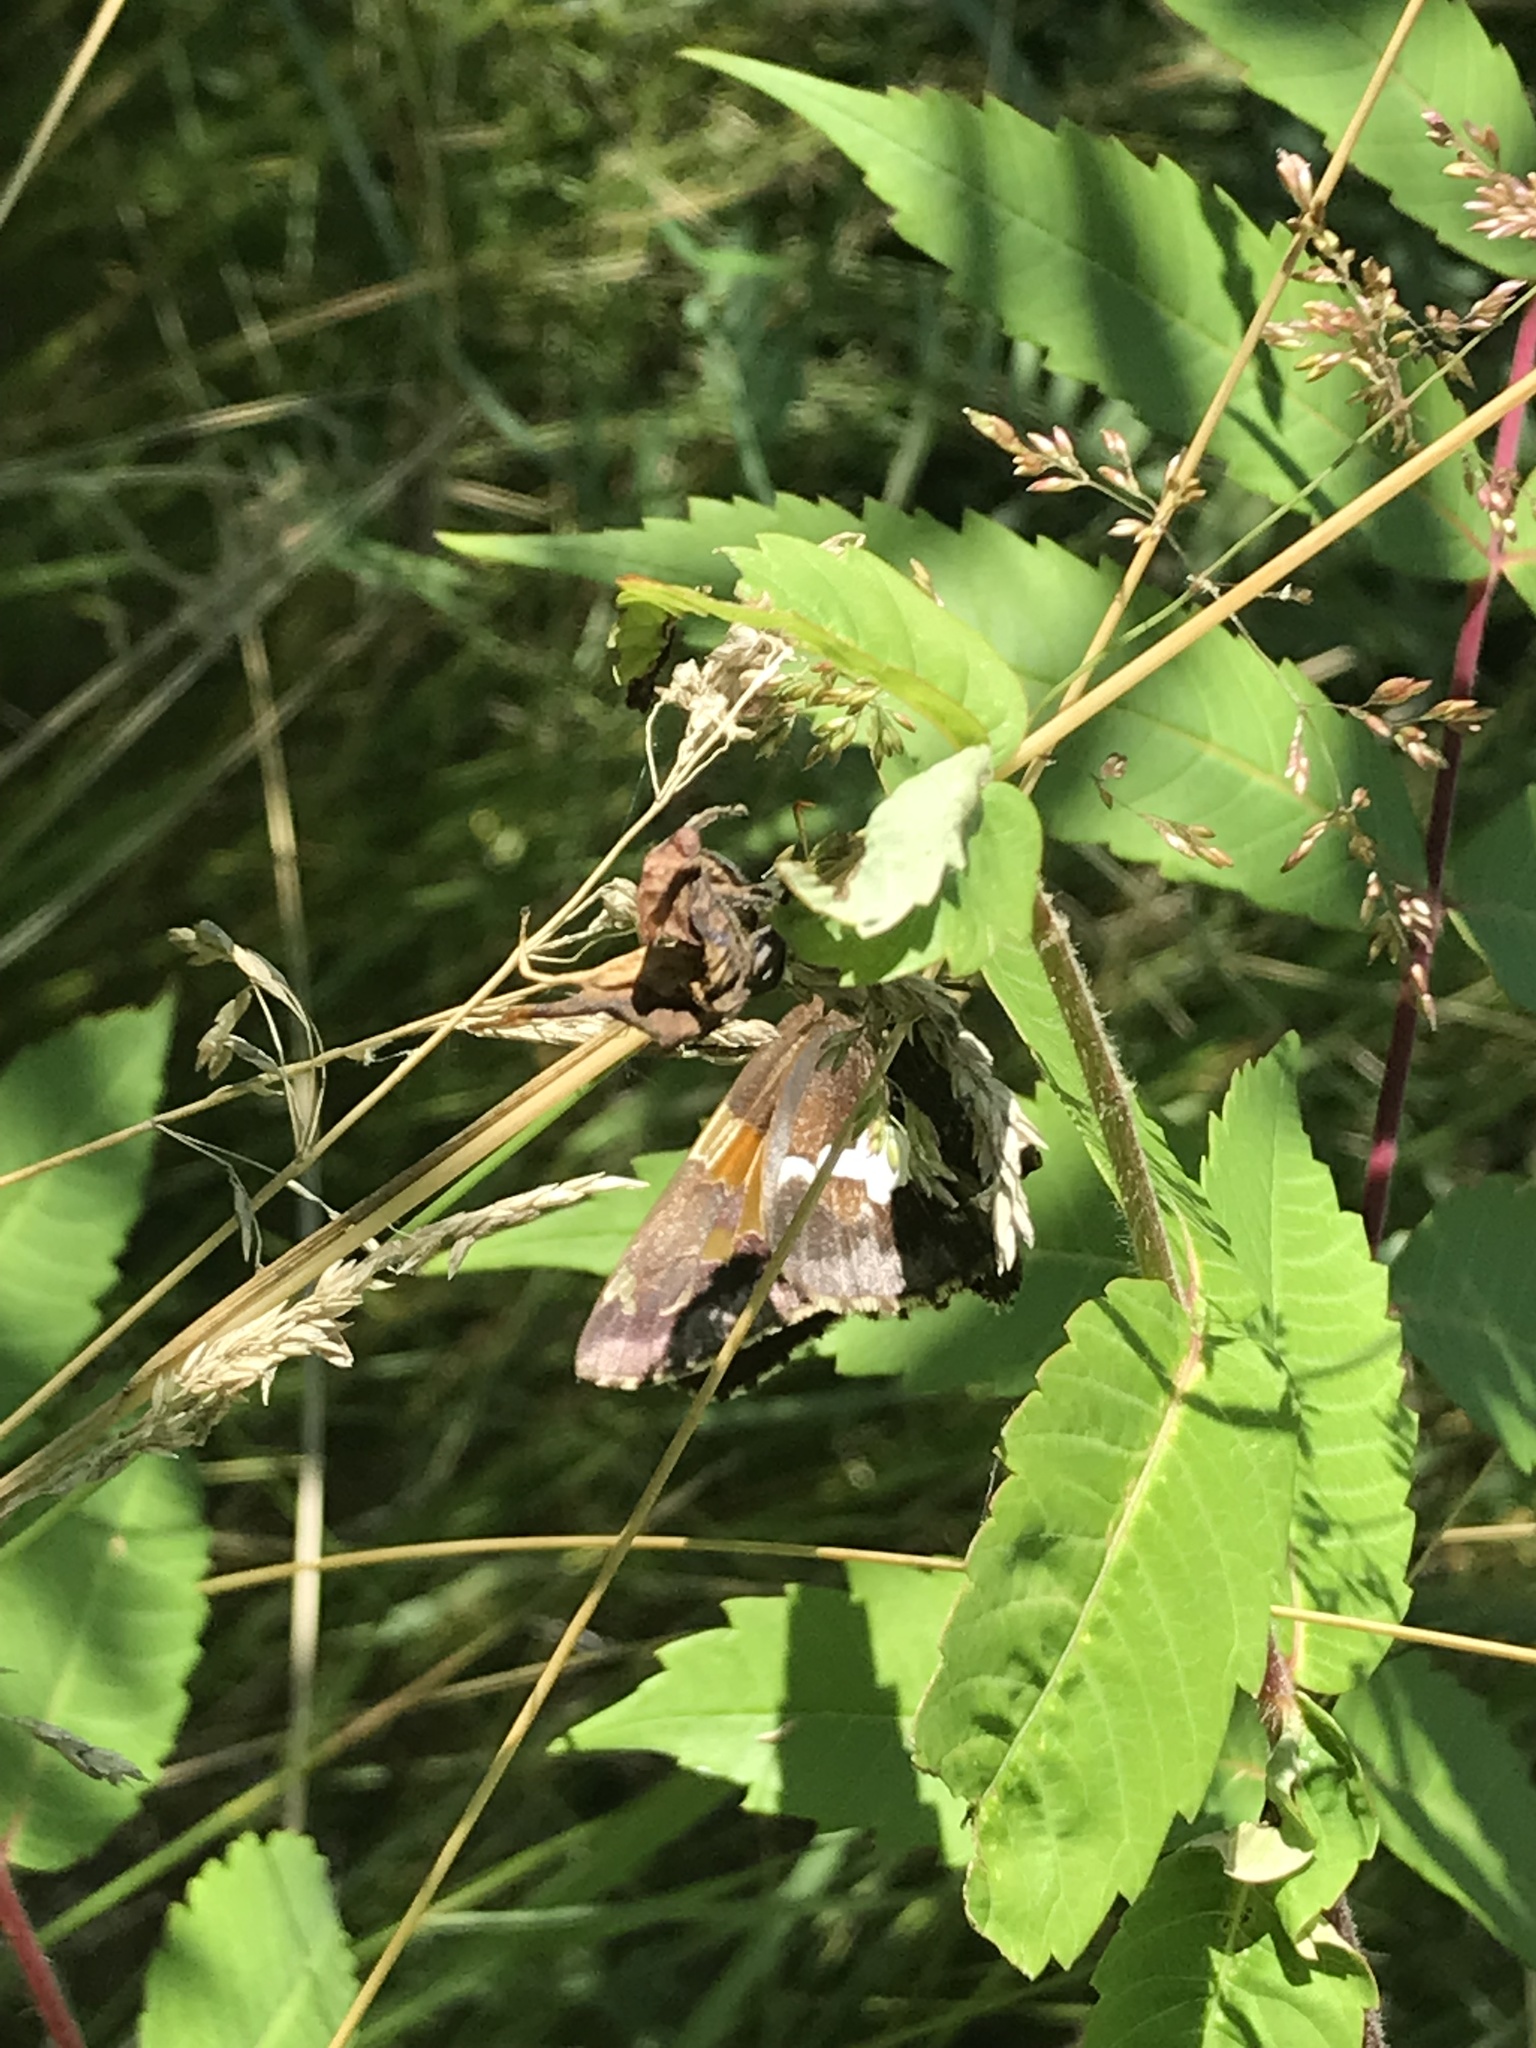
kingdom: Animalia
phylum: Arthropoda
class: Insecta
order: Lepidoptera
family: Hesperiidae
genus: Epargyreus
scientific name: Epargyreus clarus
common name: Silver-spotted skipper
